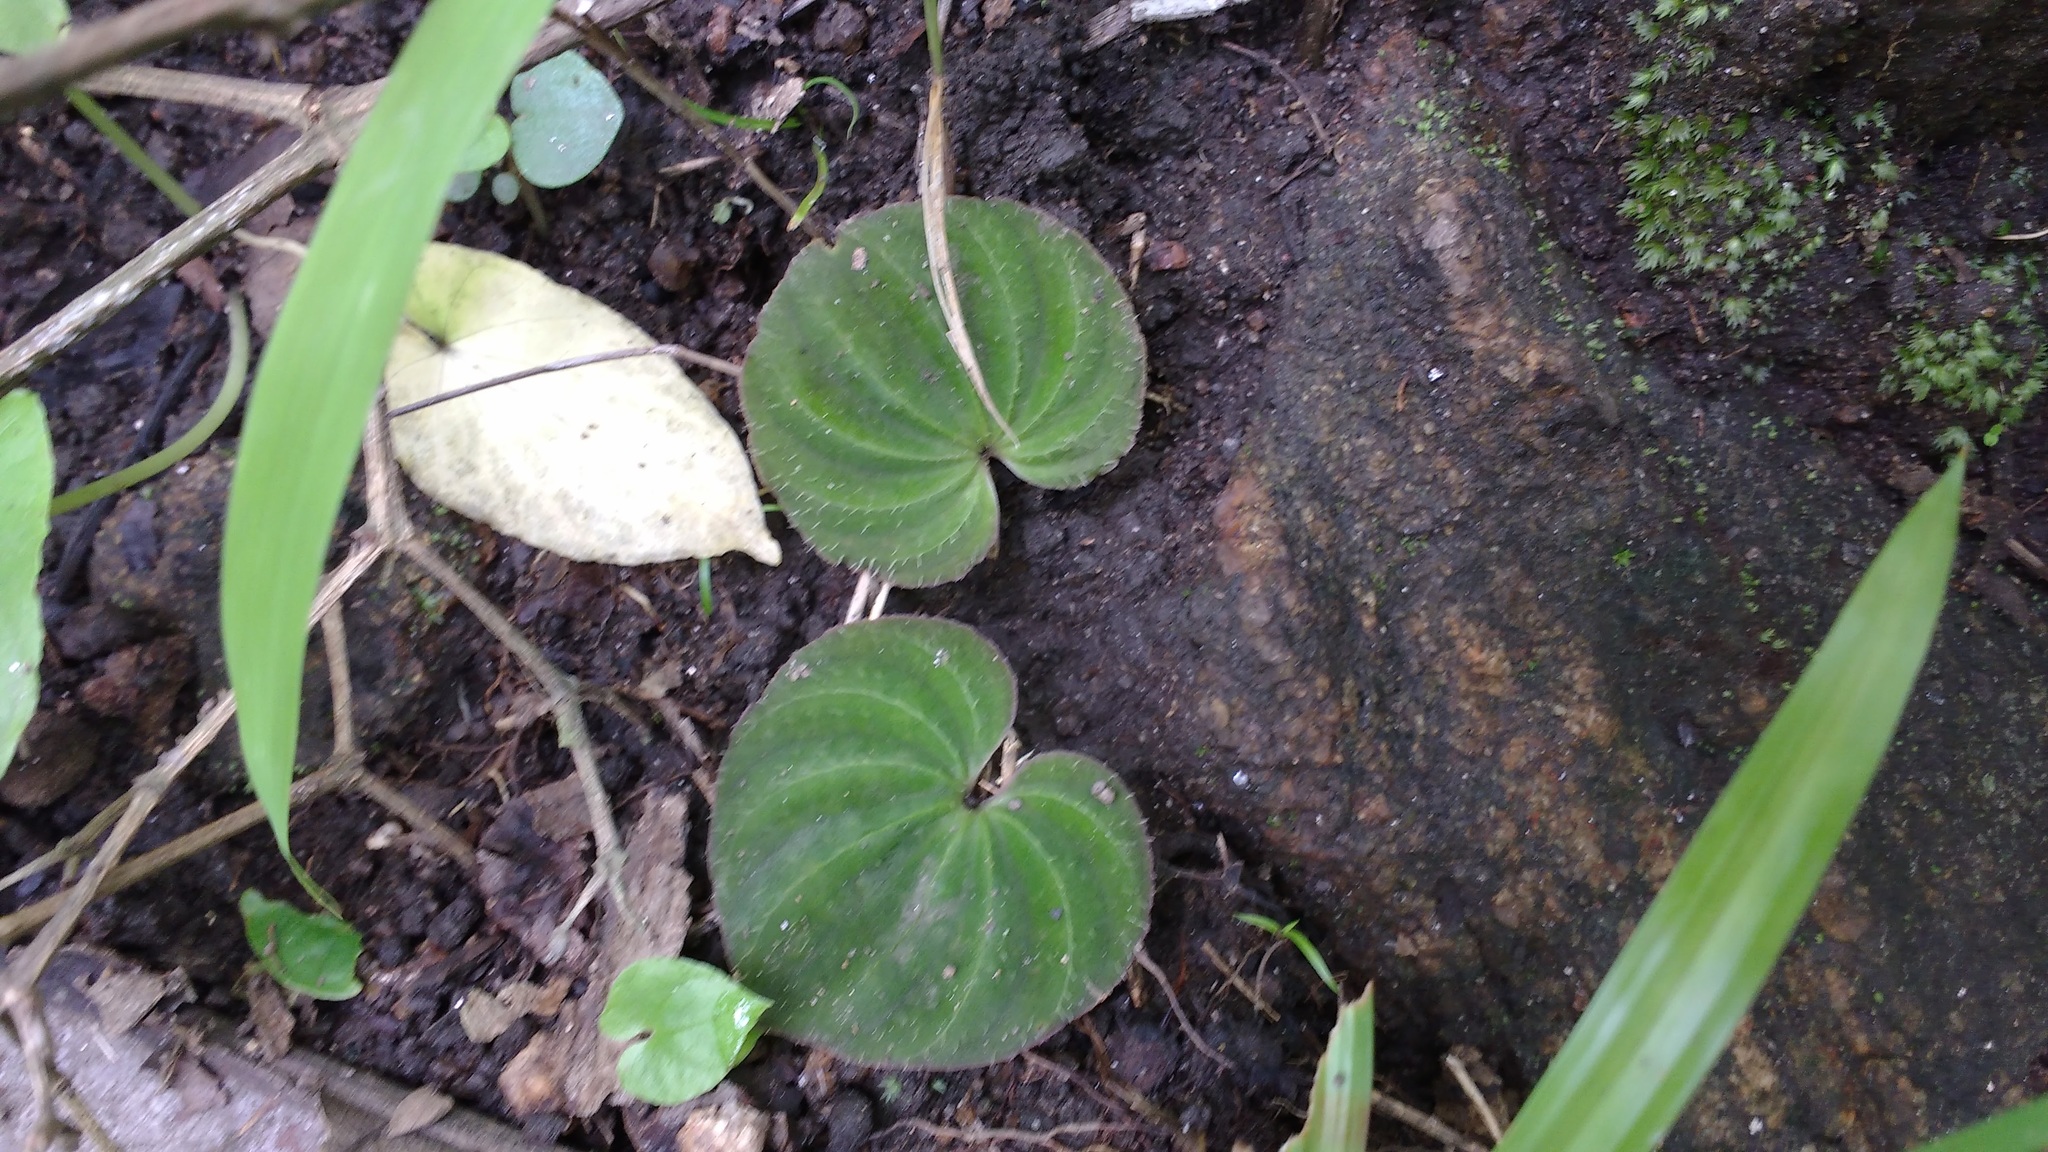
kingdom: Plantae
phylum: Tracheophyta
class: Liliopsida
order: Asparagales
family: Orchidaceae
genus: Nervilia
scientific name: Nervilia plicata
